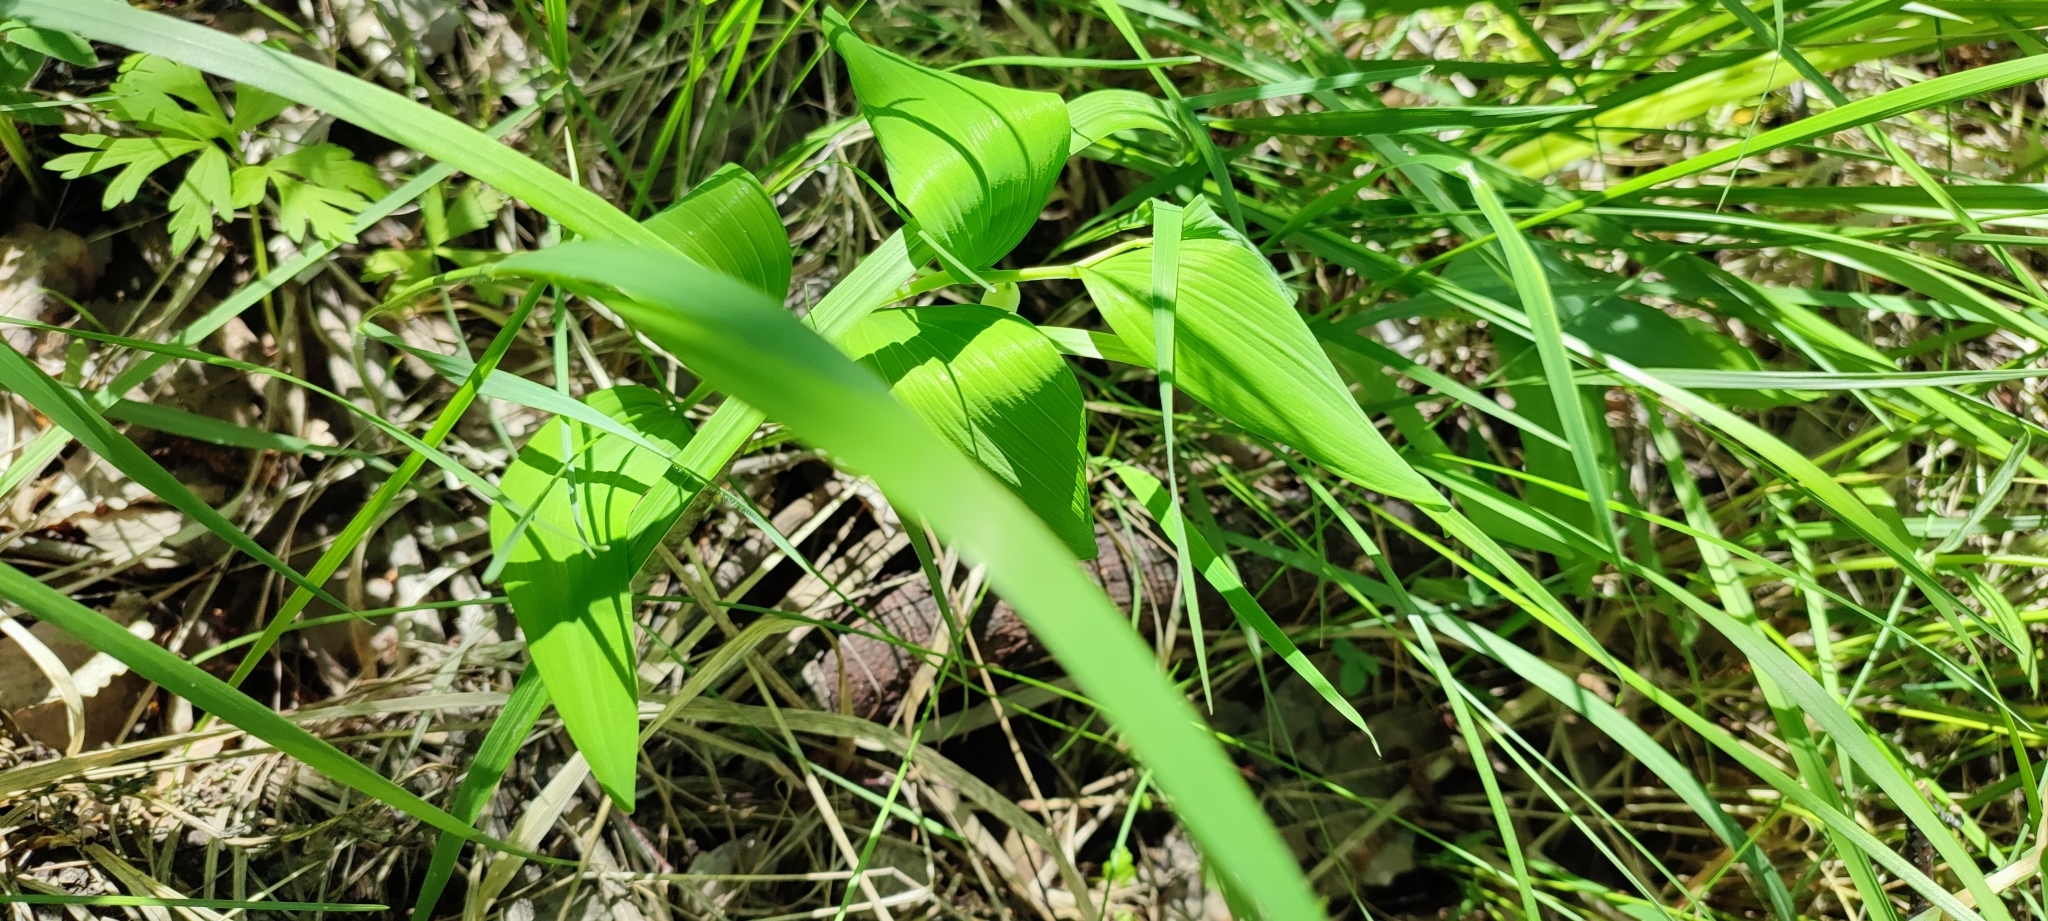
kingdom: Plantae
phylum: Tracheophyta
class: Liliopsida
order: Asparagales
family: Asparagaceae
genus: Polygonatum
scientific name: Polygonatum odoratum
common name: Angular solomon's-seal
